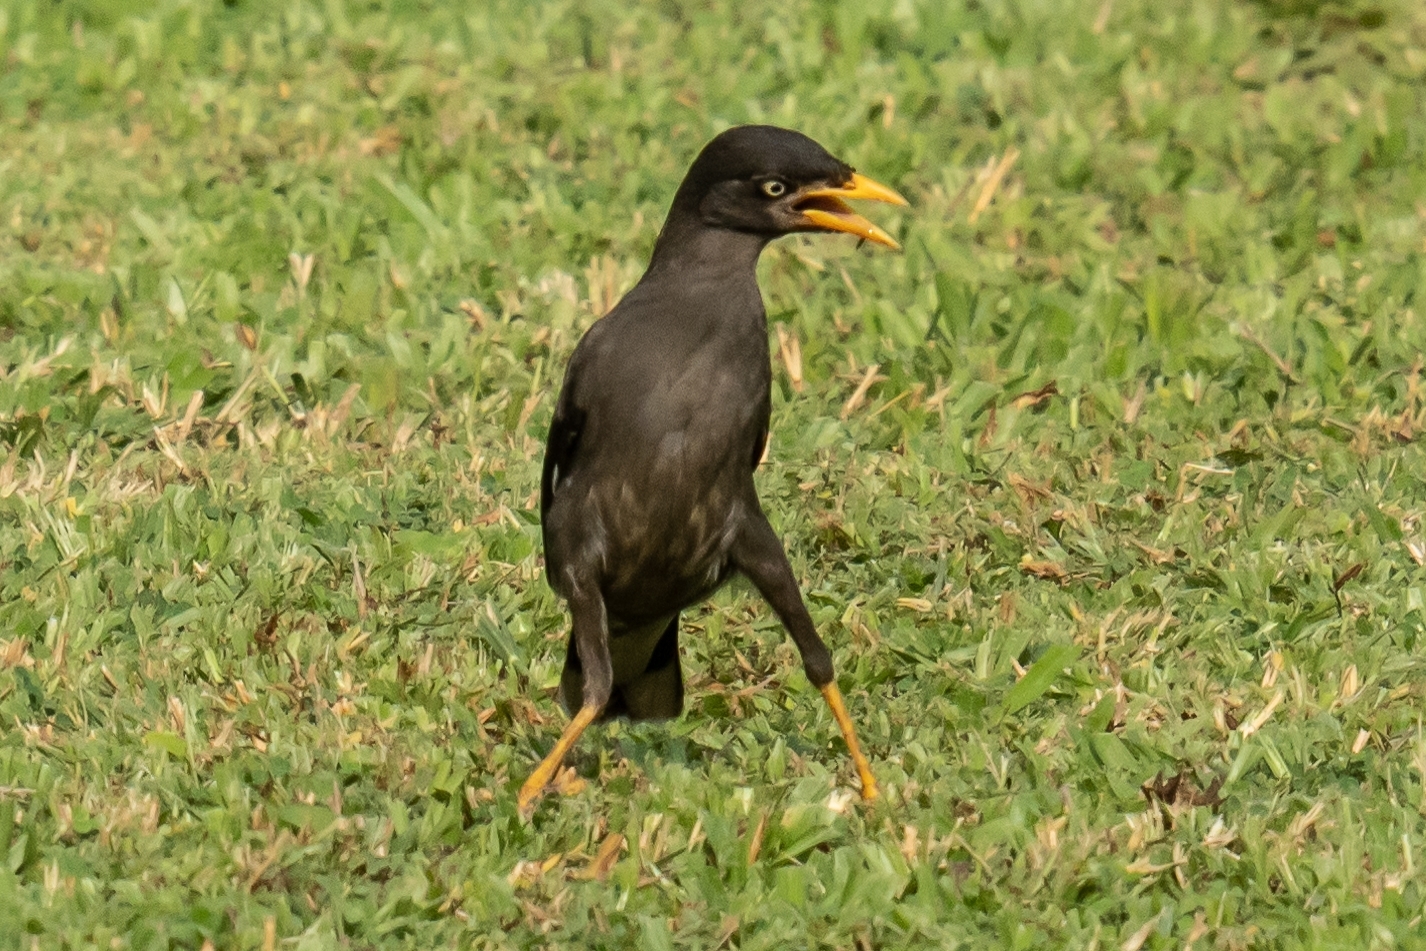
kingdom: Animalia
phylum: Chordata
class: Aves
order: Passeriformes
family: Sturnidae
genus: Acridotheres
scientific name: Acridotheres javanicus
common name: Javan myna
